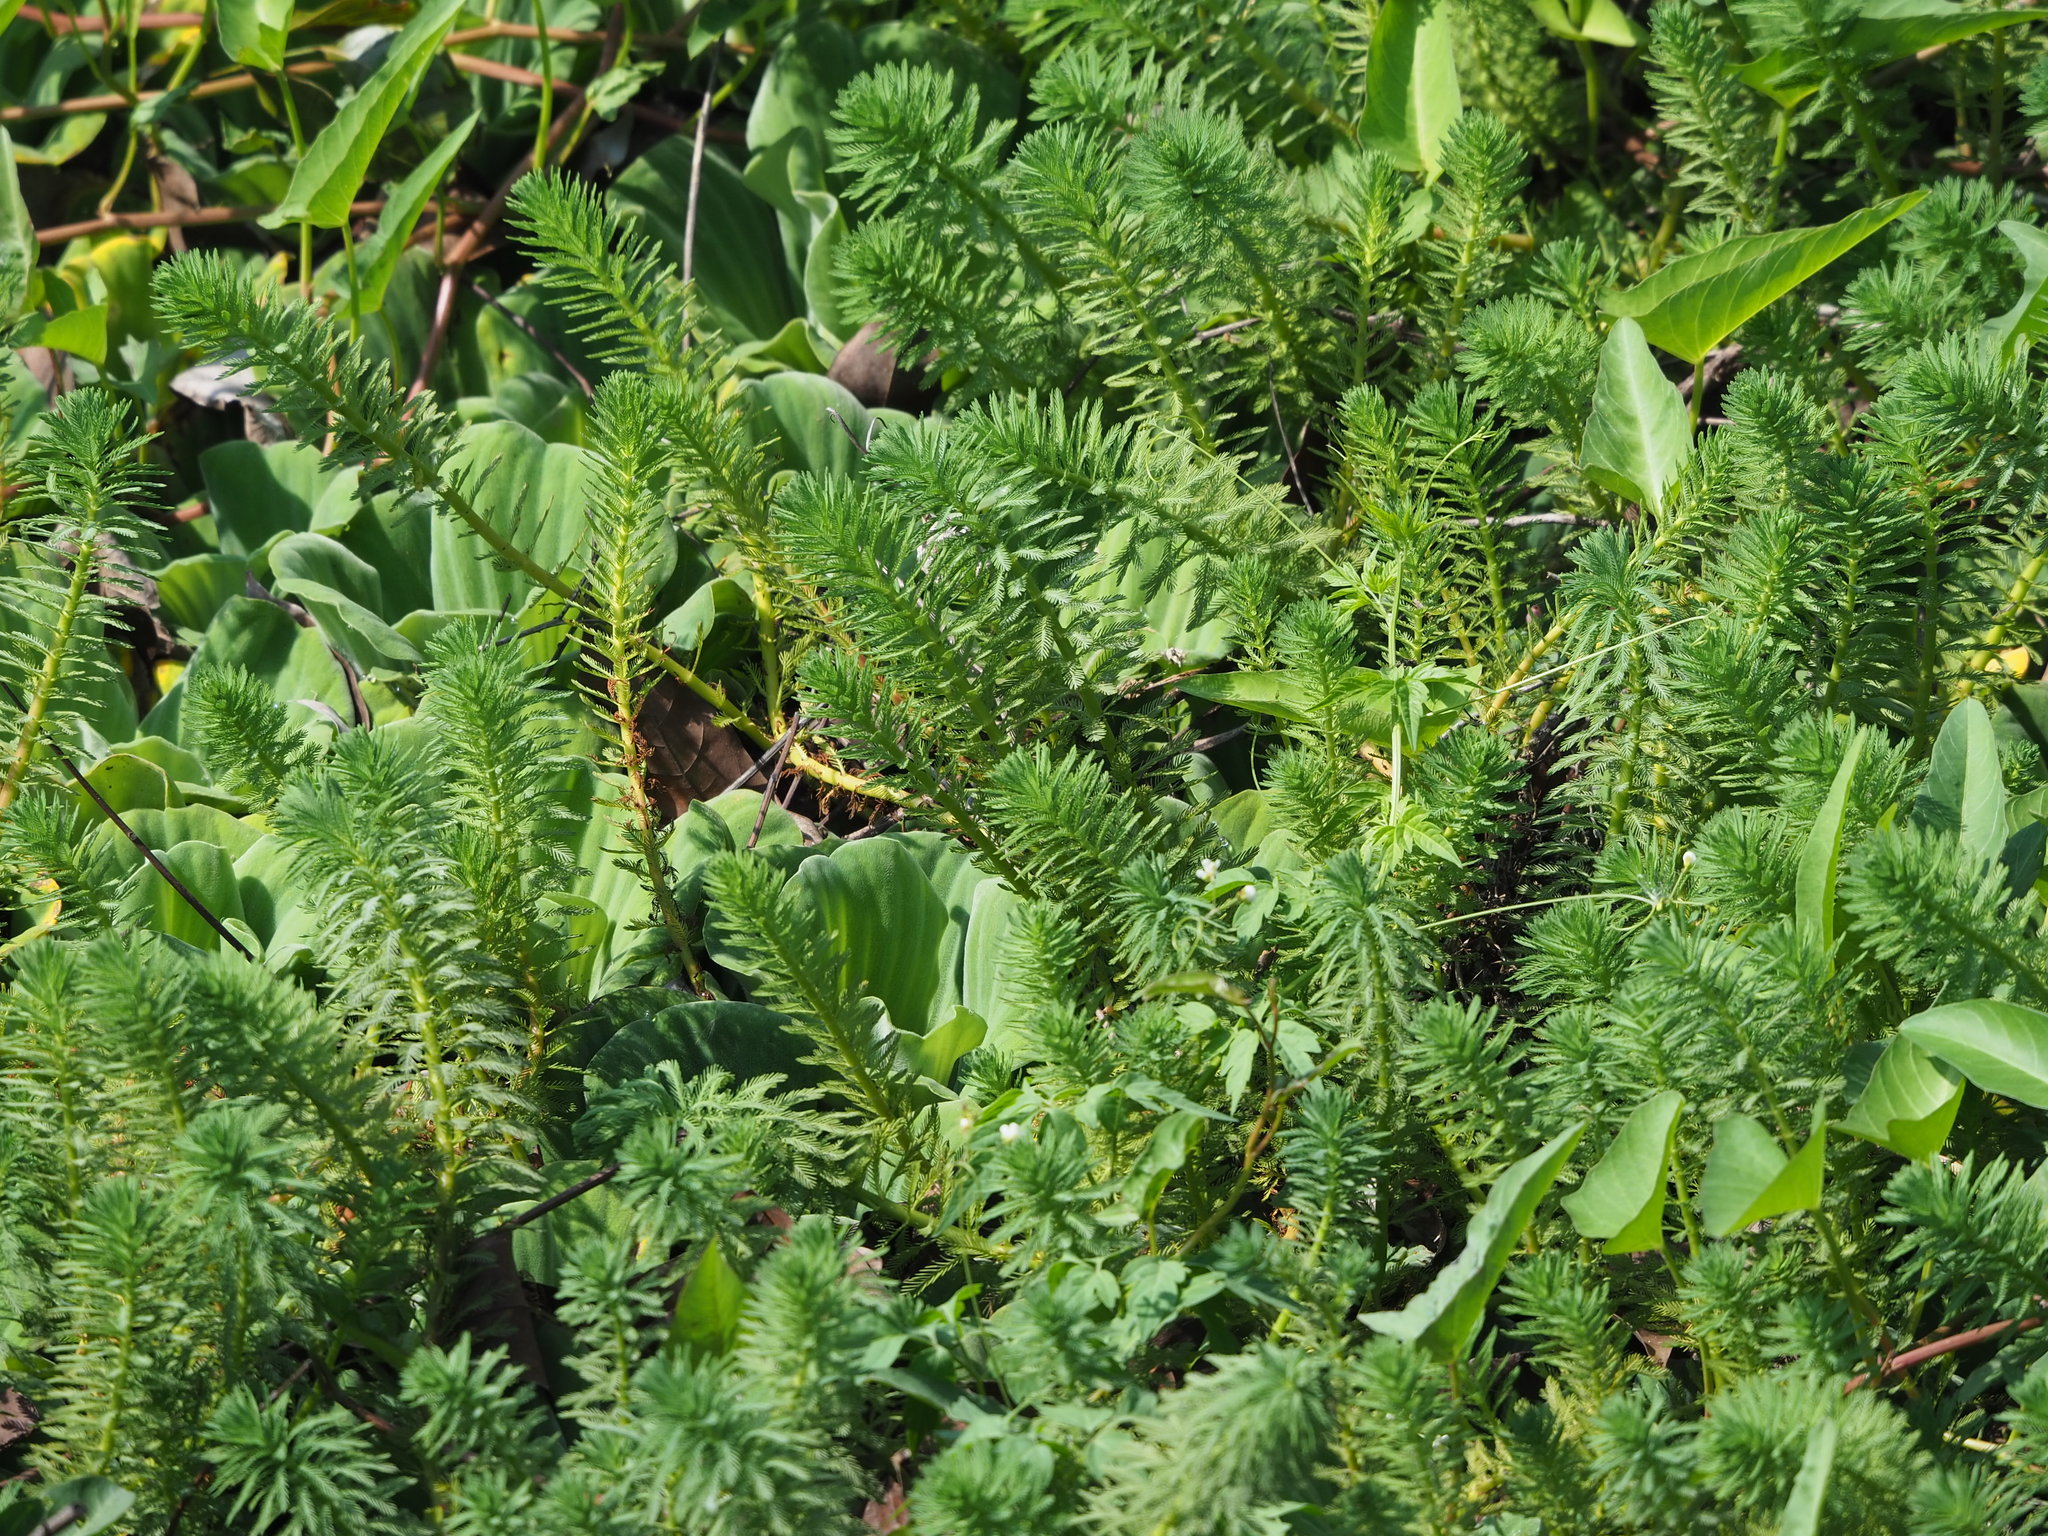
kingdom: Plantae
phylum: Tracheophyta
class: Magnoliopsida
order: Saxifragales
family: Haloragaceae
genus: Myriophyllum
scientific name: Myriophyllum aquaticum
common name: Parrot's feather
